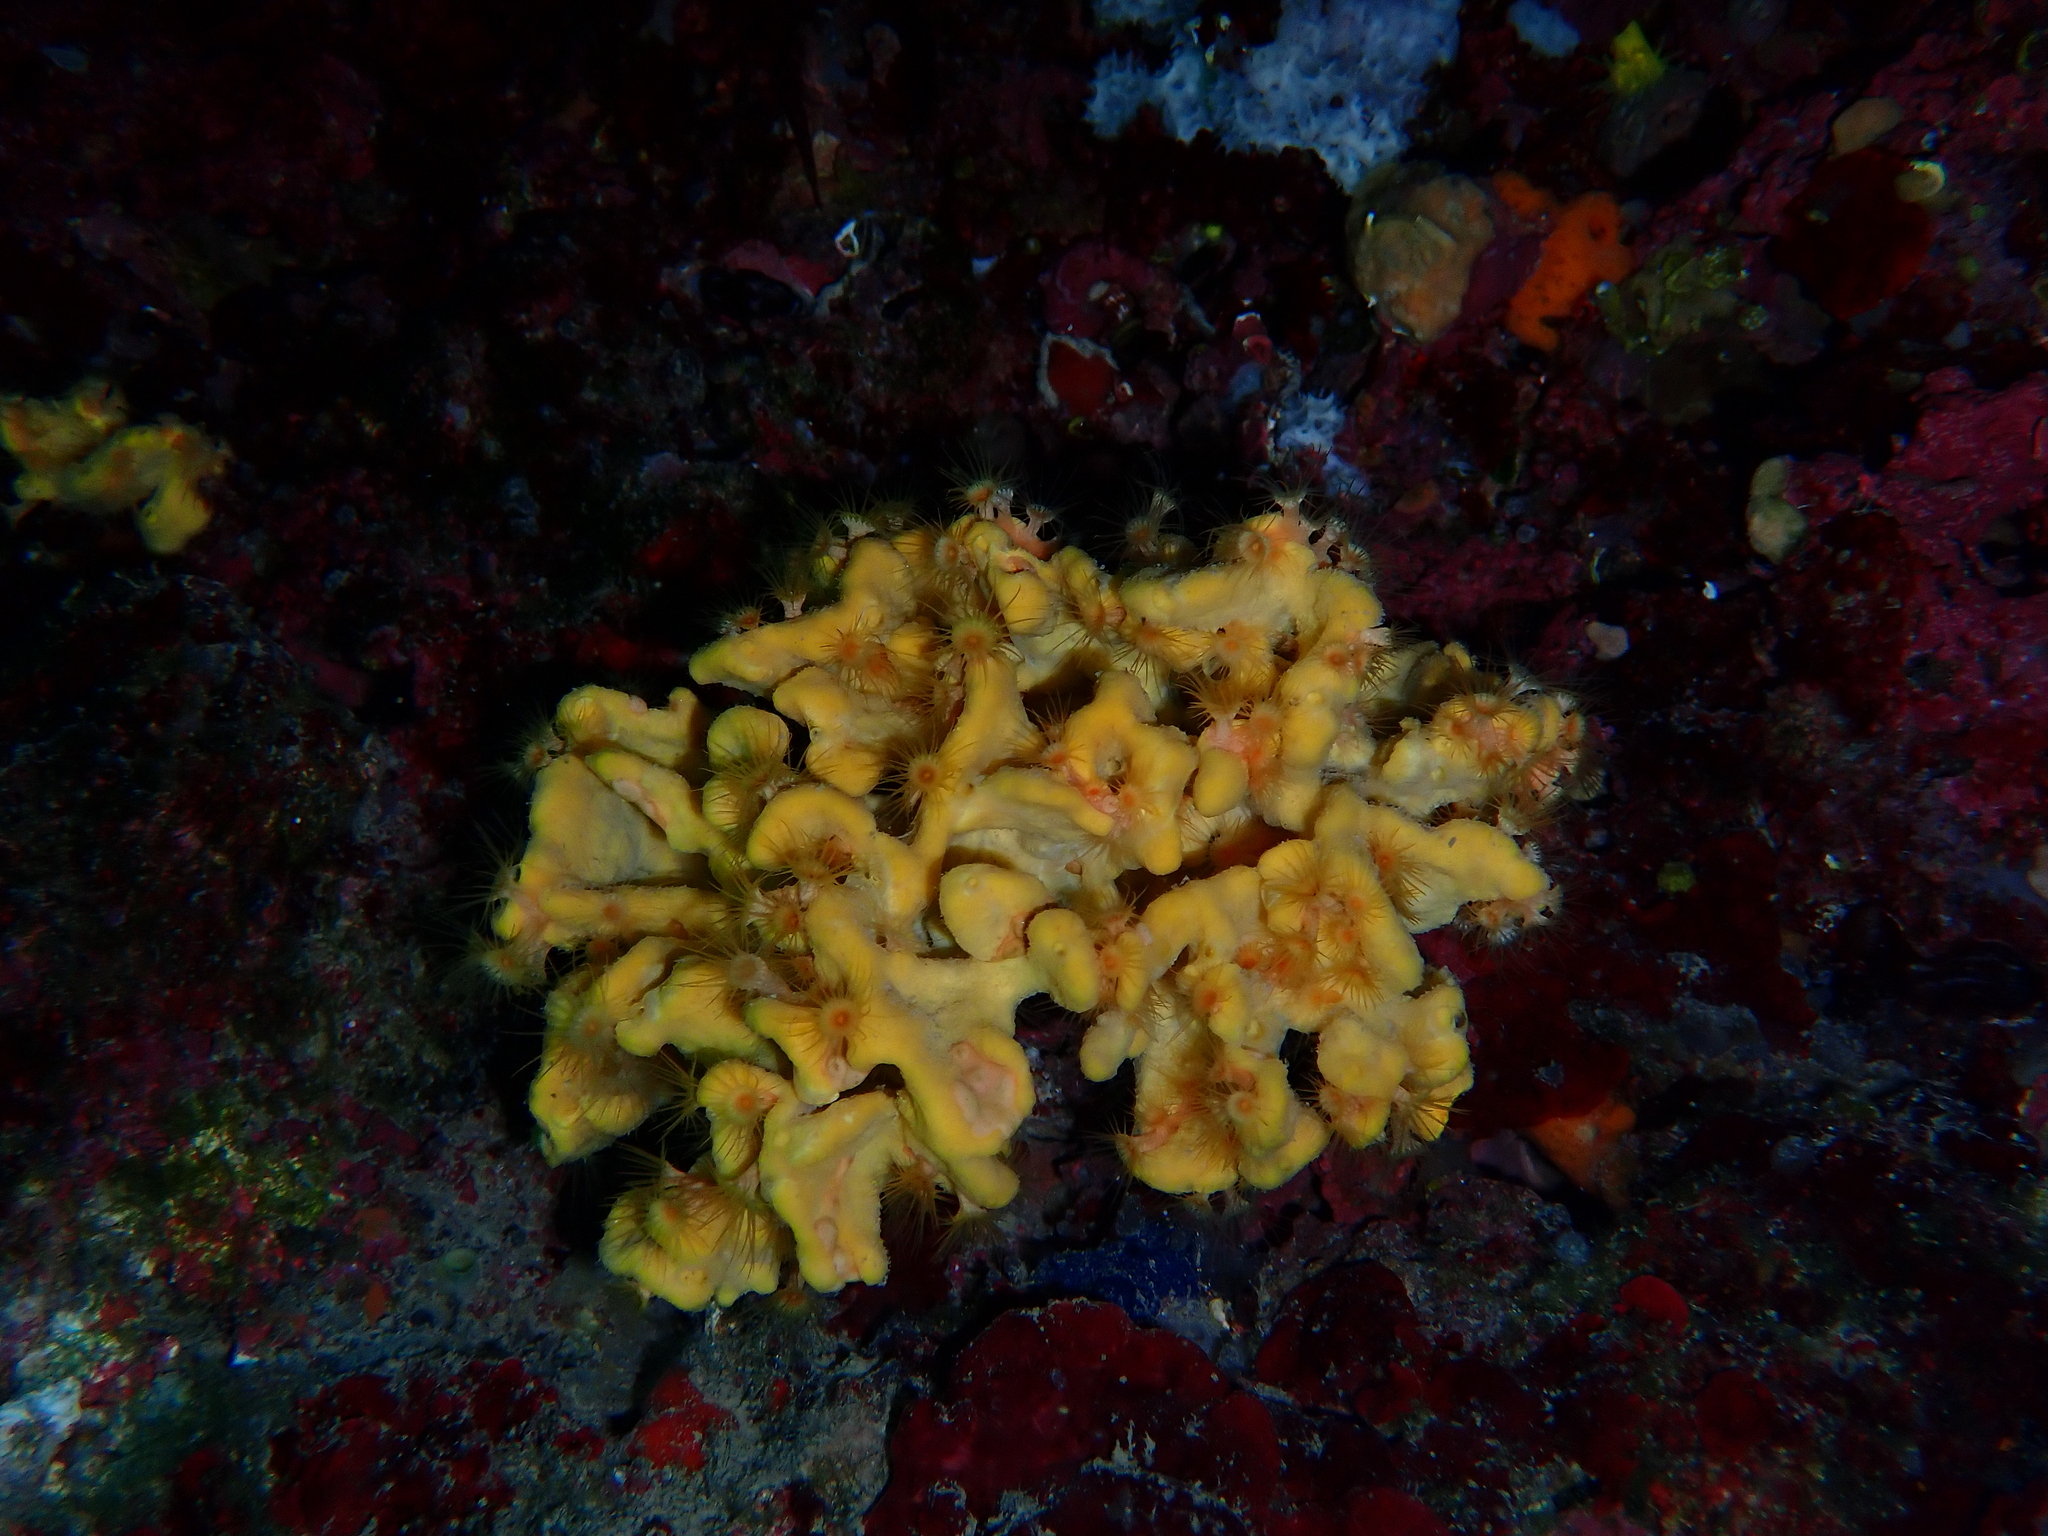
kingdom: Animalia
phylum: Cnidaria
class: Anthozoa
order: Zoantharia
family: Parazoanthidae
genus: Parazoanthus
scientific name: Parazoanthus axinellae
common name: Yellow cluster anemone
